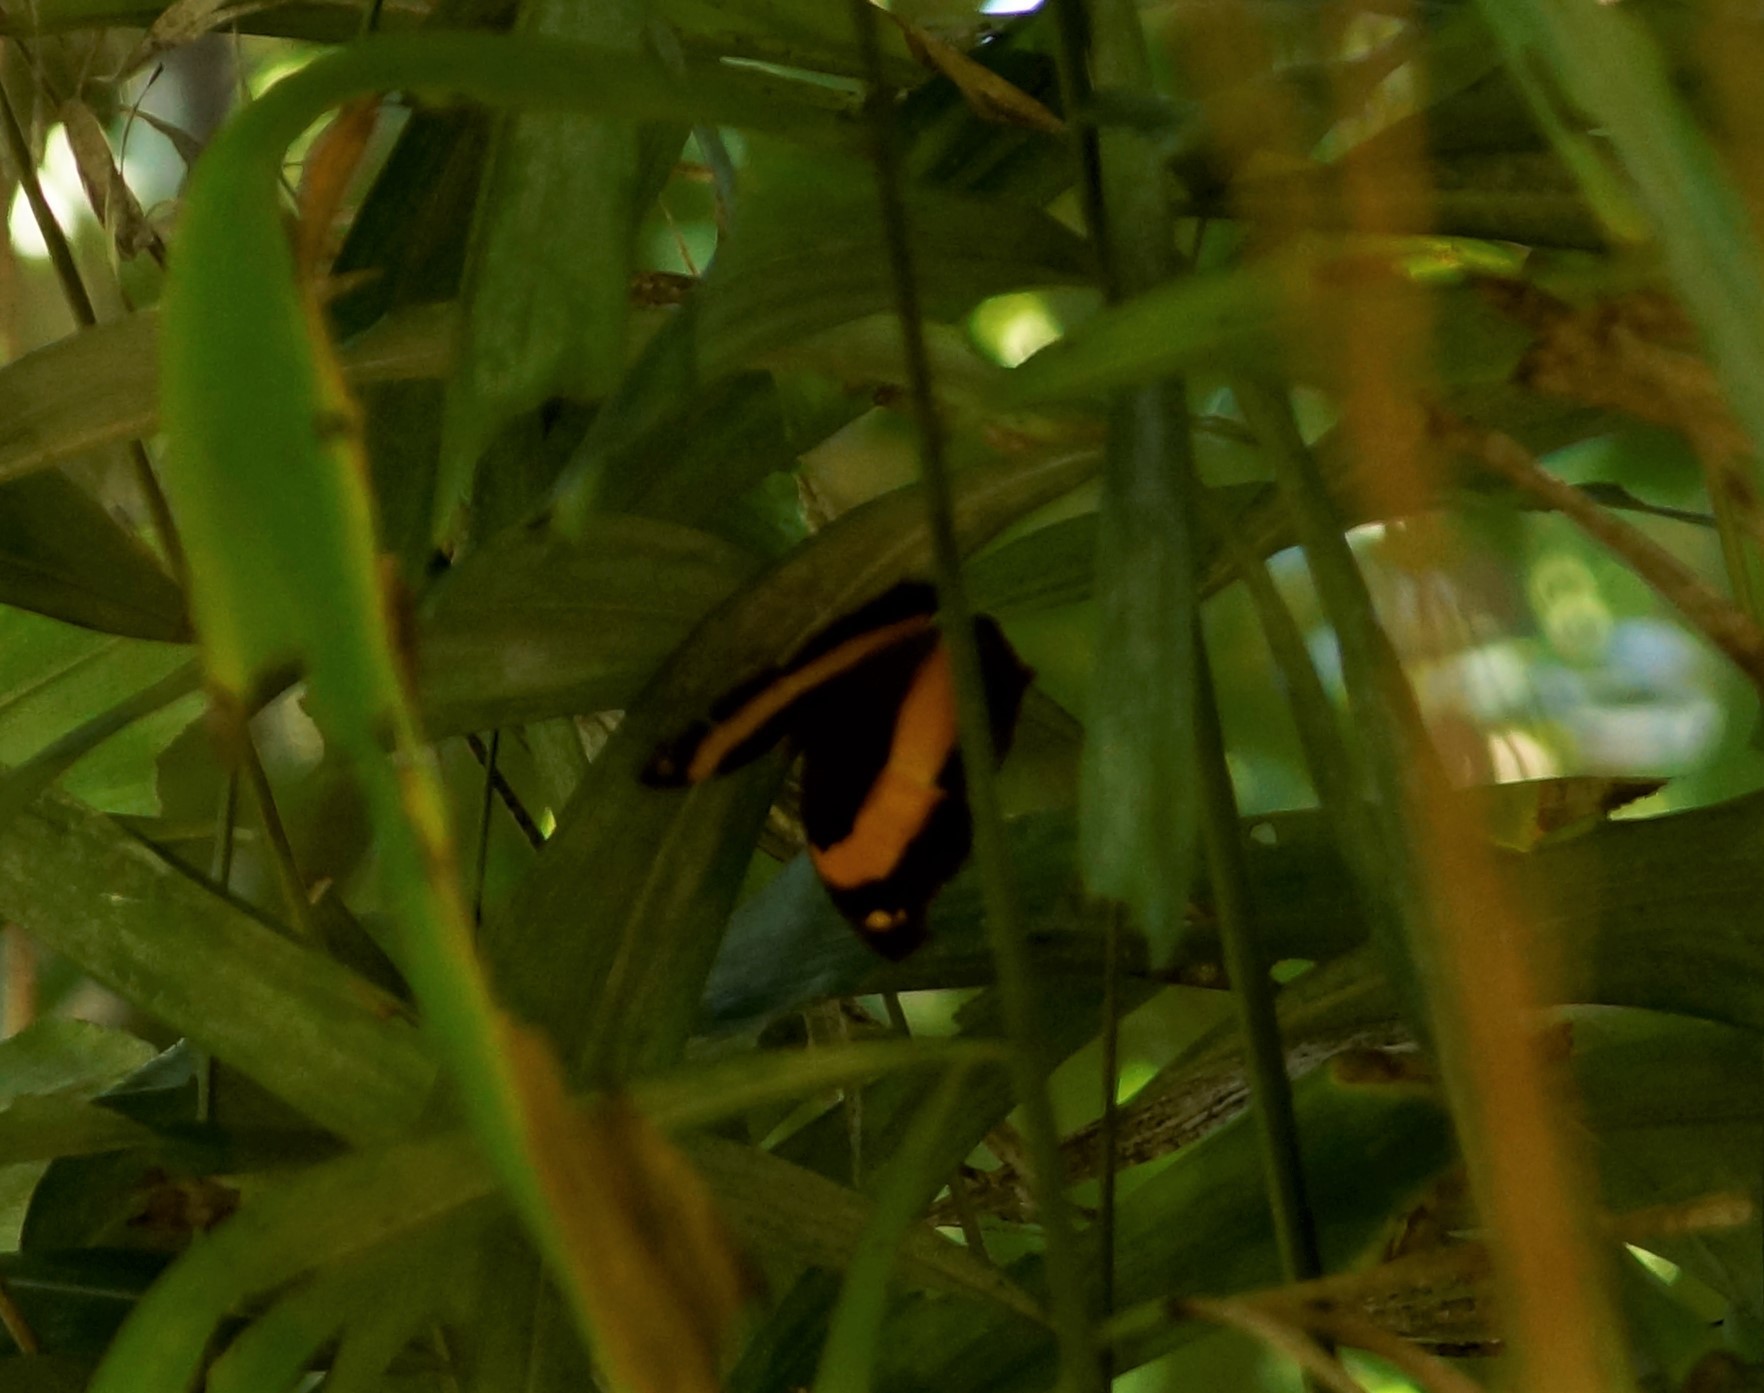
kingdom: Animalia
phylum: Arthropoda
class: Insecta
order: Lepidoptera
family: Nymphalidae
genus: Yoma
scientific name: Yoma sabina
